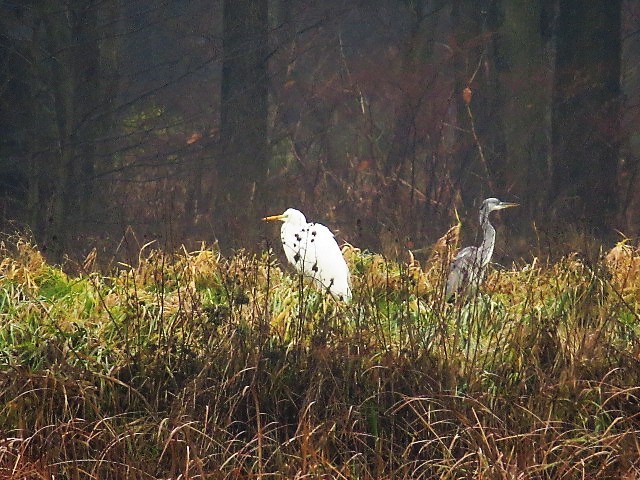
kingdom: Animalia
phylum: Chordata
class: Aves
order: Pelecaniformes
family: Ardeidae
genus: Ardea
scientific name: Ardea cinerea
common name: Grey heron
